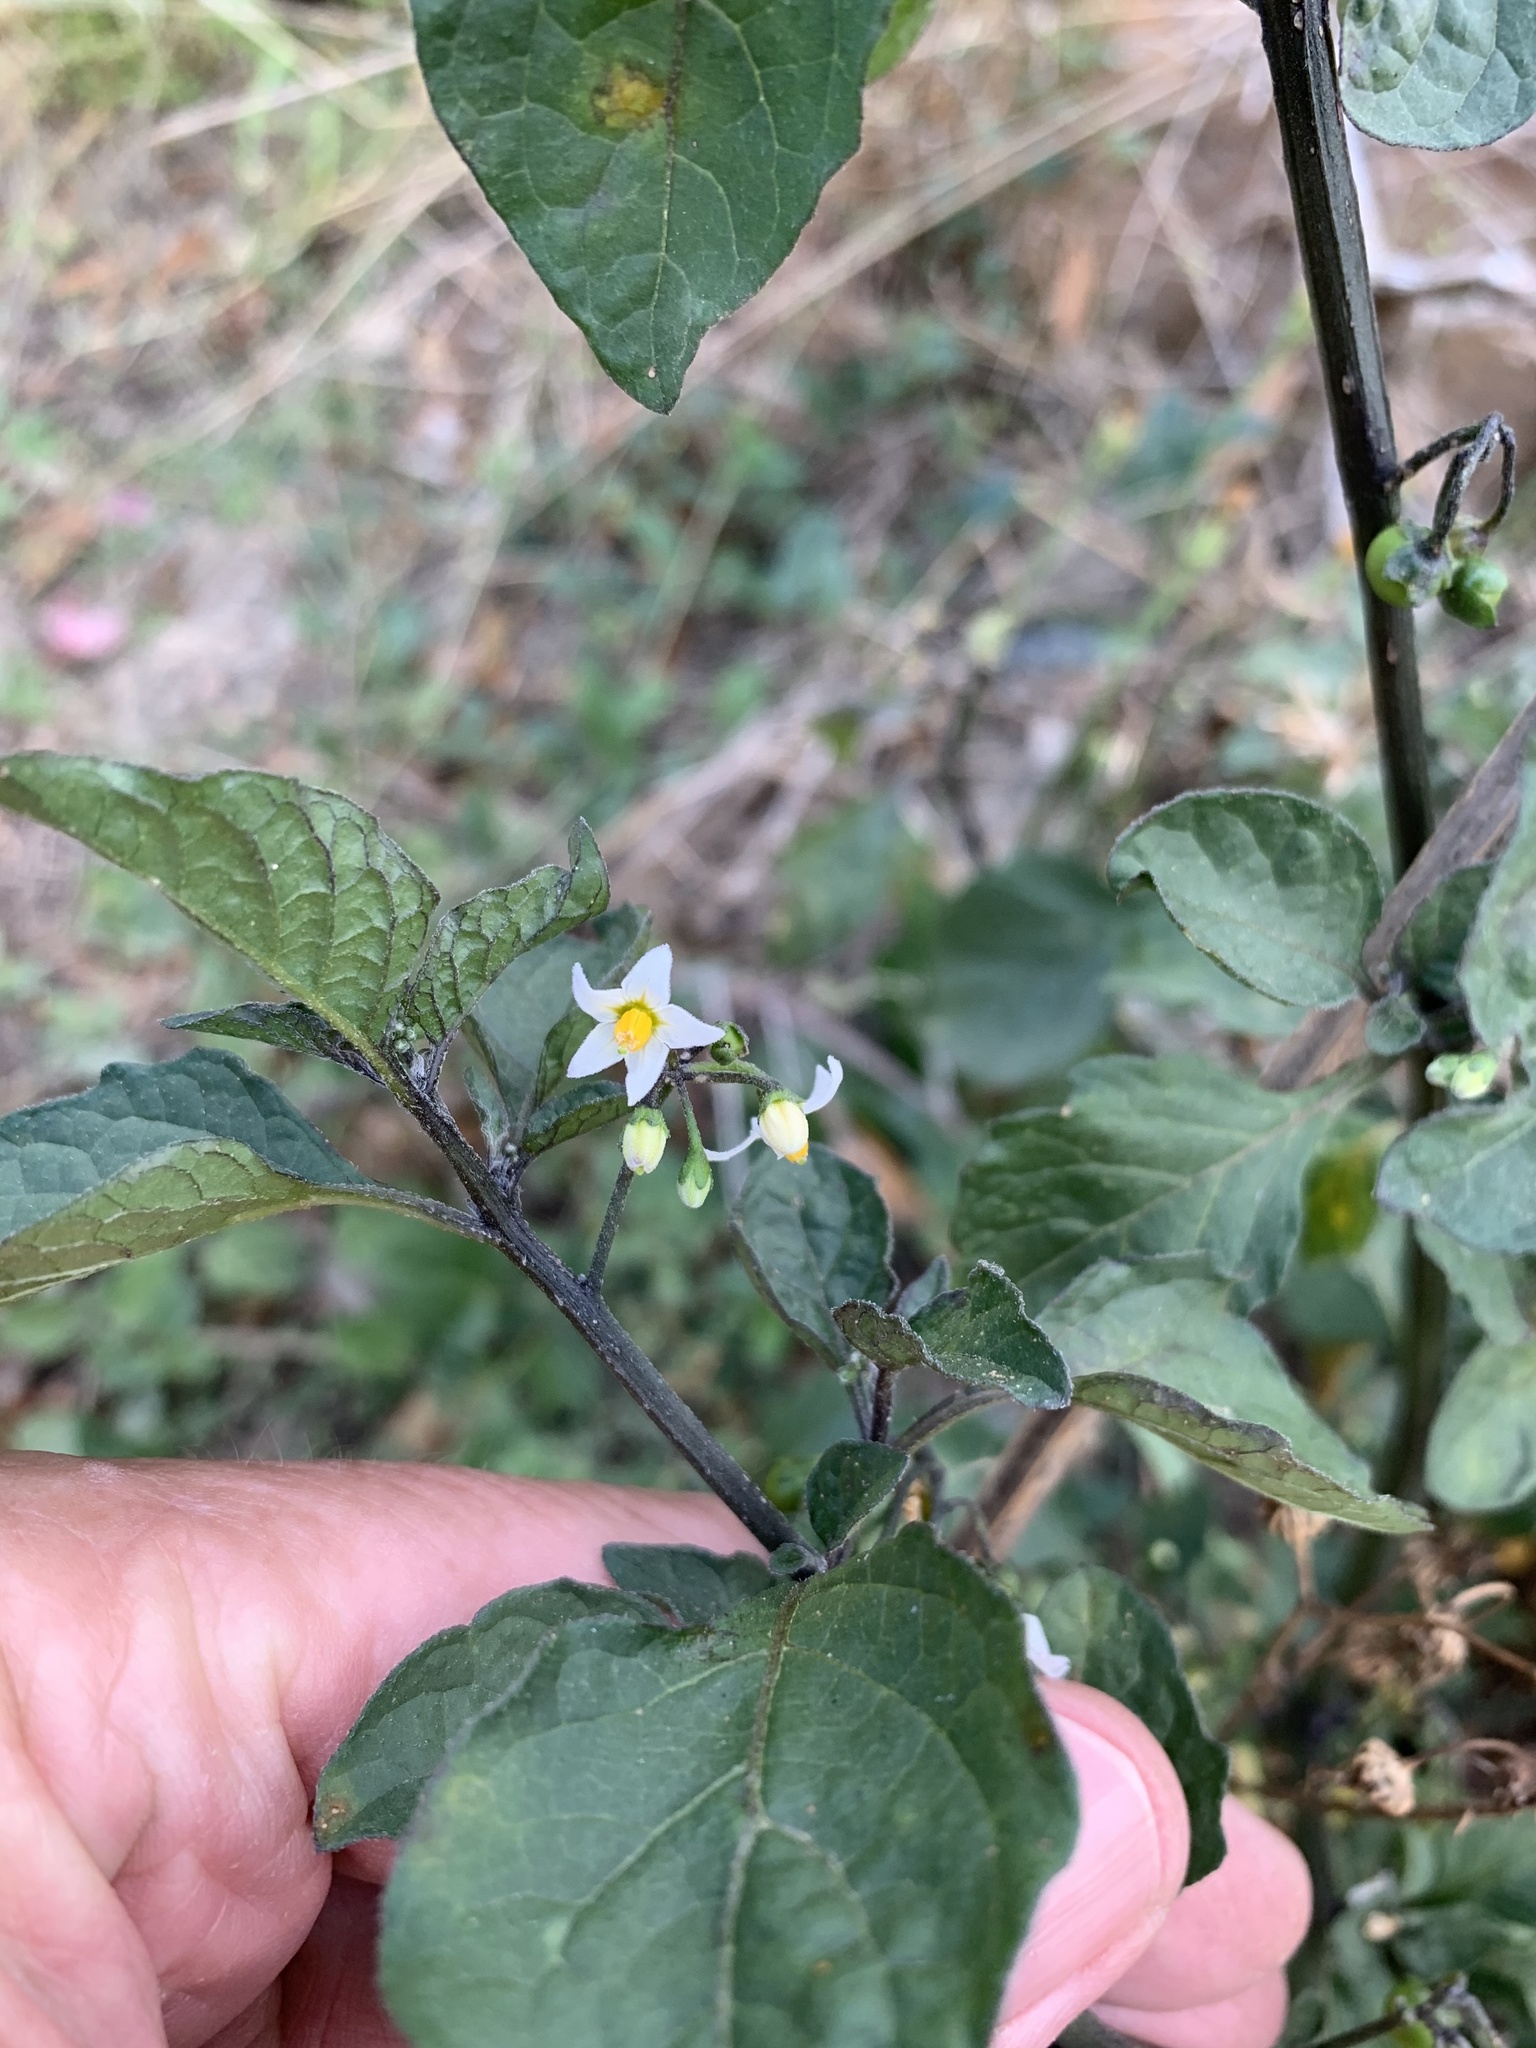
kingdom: Plantae
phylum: Tracheophyta
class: Magnoliopsida
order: Solanales
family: Solanaceae
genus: Solanum
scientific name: Solanum nigrum
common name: Black nightshade
